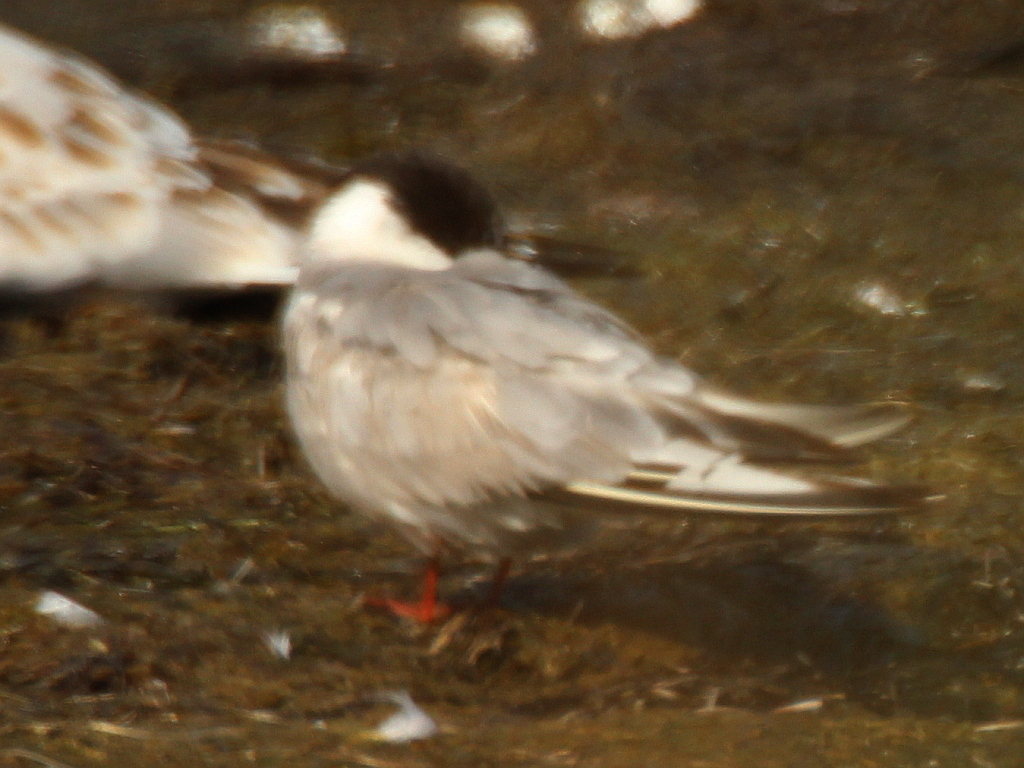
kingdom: Animalia
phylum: Chordata
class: Aves
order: Charadriiformes
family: Laridae
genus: Chlidonias
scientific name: Chlidonias hybrida
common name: Whiskered tern
